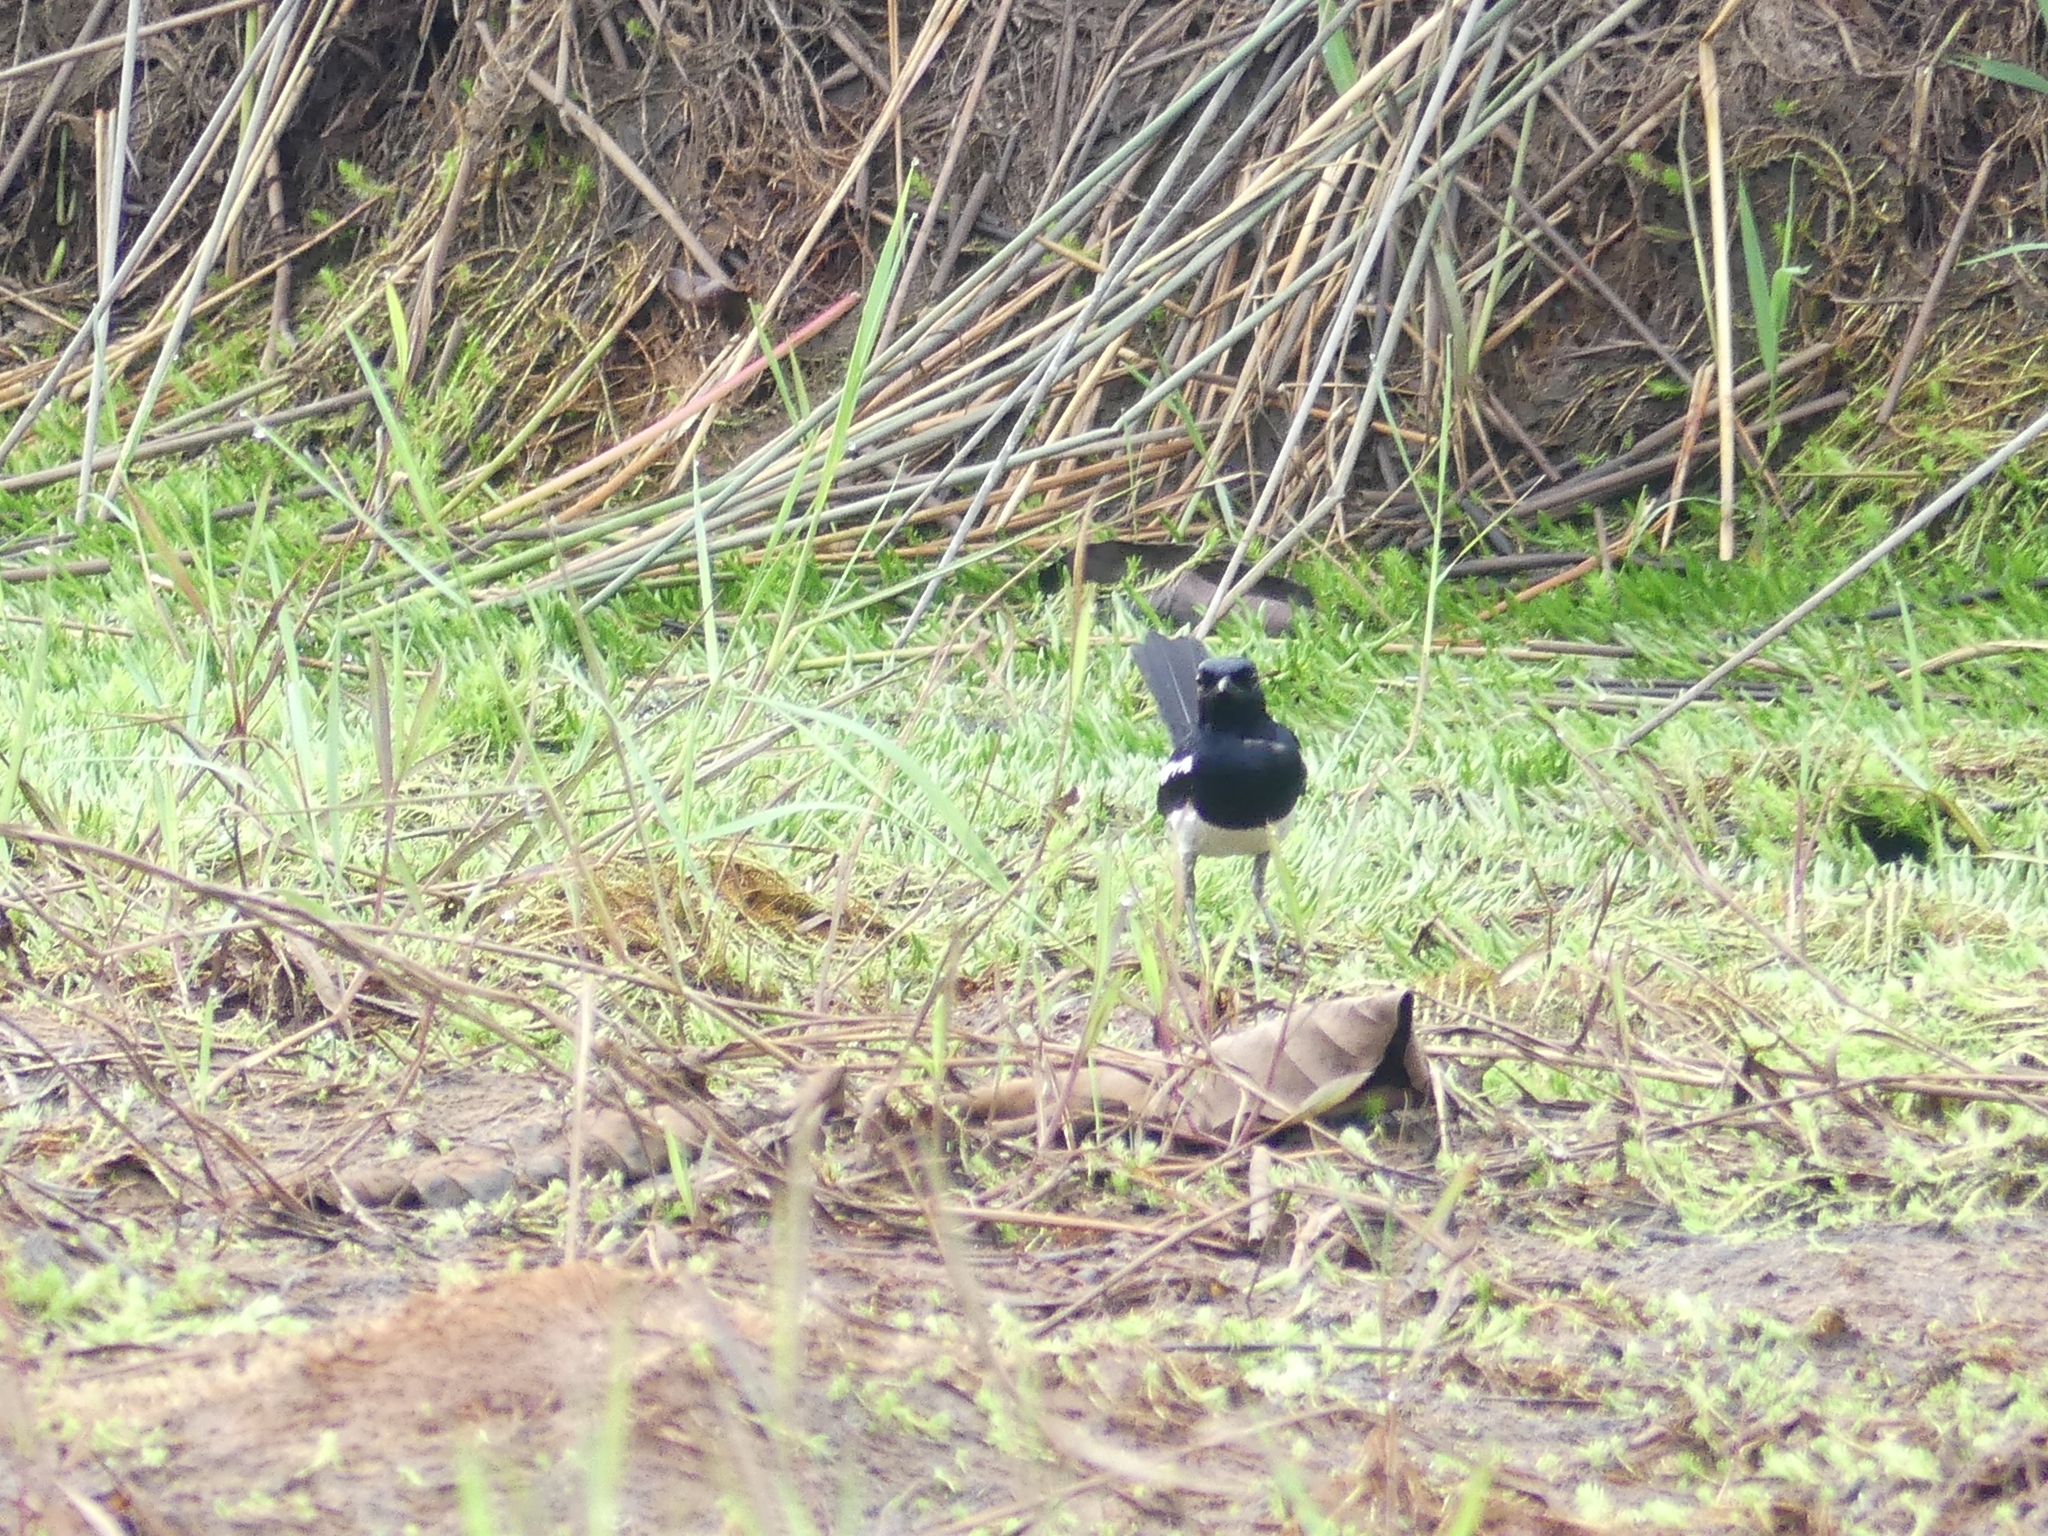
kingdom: Animalia
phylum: Chordata
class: Aves
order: Passeriformes
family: Muscicapidae
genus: Copsychus
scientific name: Copsychus saularis
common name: Oriental magpie-robin
